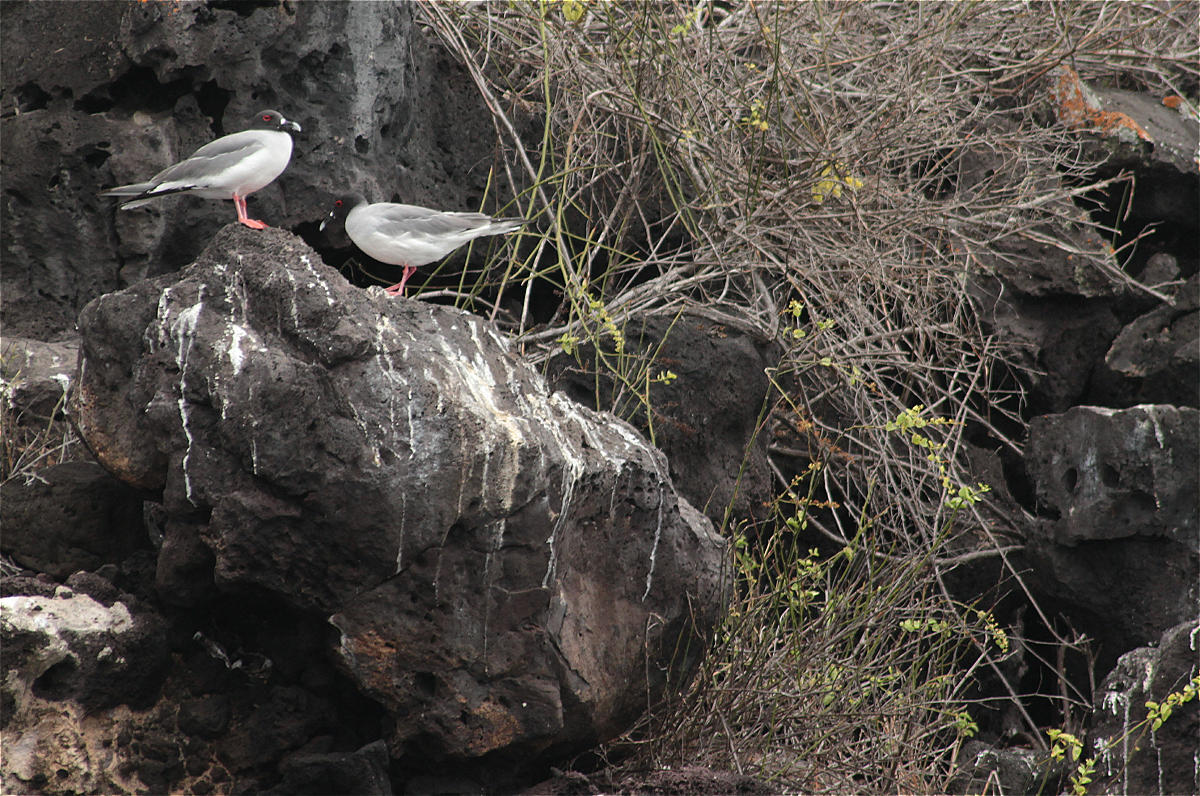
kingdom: Animalia
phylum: Chordata
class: Aves
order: Charadriiformes
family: Laridae
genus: Creagrus
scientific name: Creagrus furcatus
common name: Swallow-tailed gull
